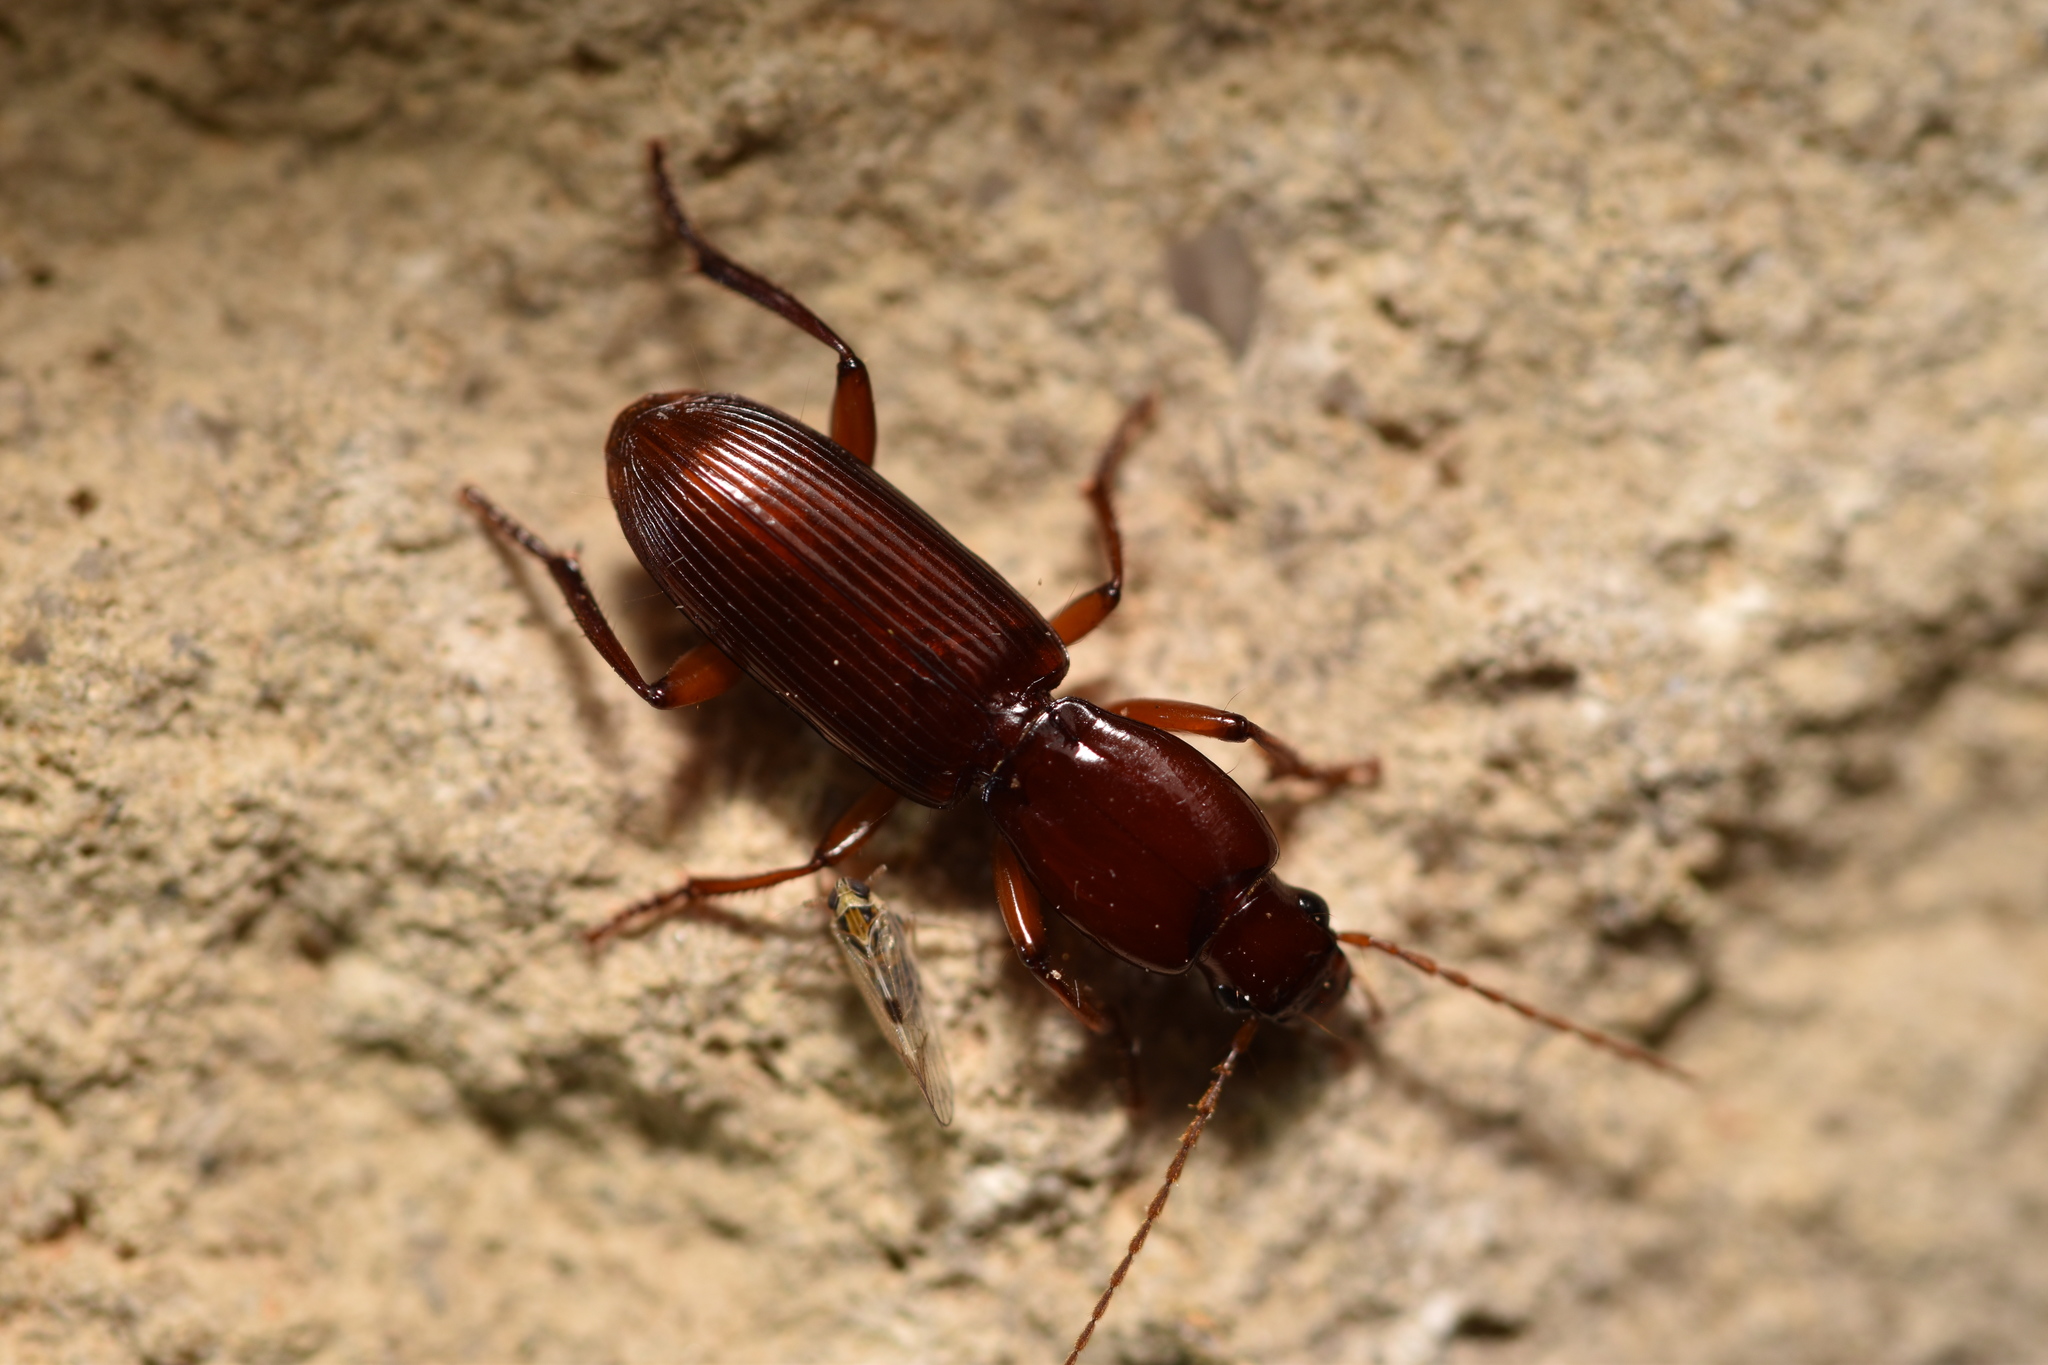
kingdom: Animalia
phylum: Arthropoda
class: Insecta
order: Coleoptera
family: Carabidae
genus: Stenomorphus
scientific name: Stenomorphus californicus
